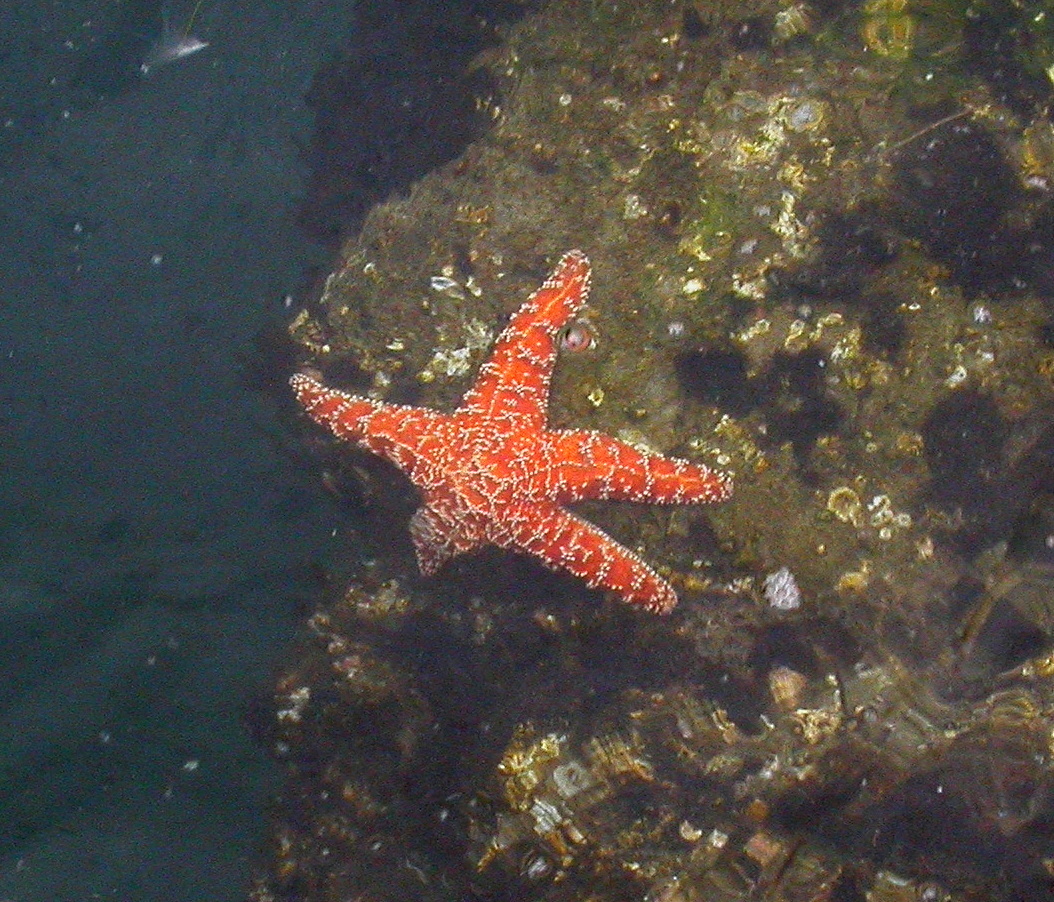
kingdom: Animalia
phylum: Echinodermata
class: Asteroidea
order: Forcipulatida
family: Asteriidae
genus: Pisaster
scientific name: Pisaster ochraceus
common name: Ochre stars
